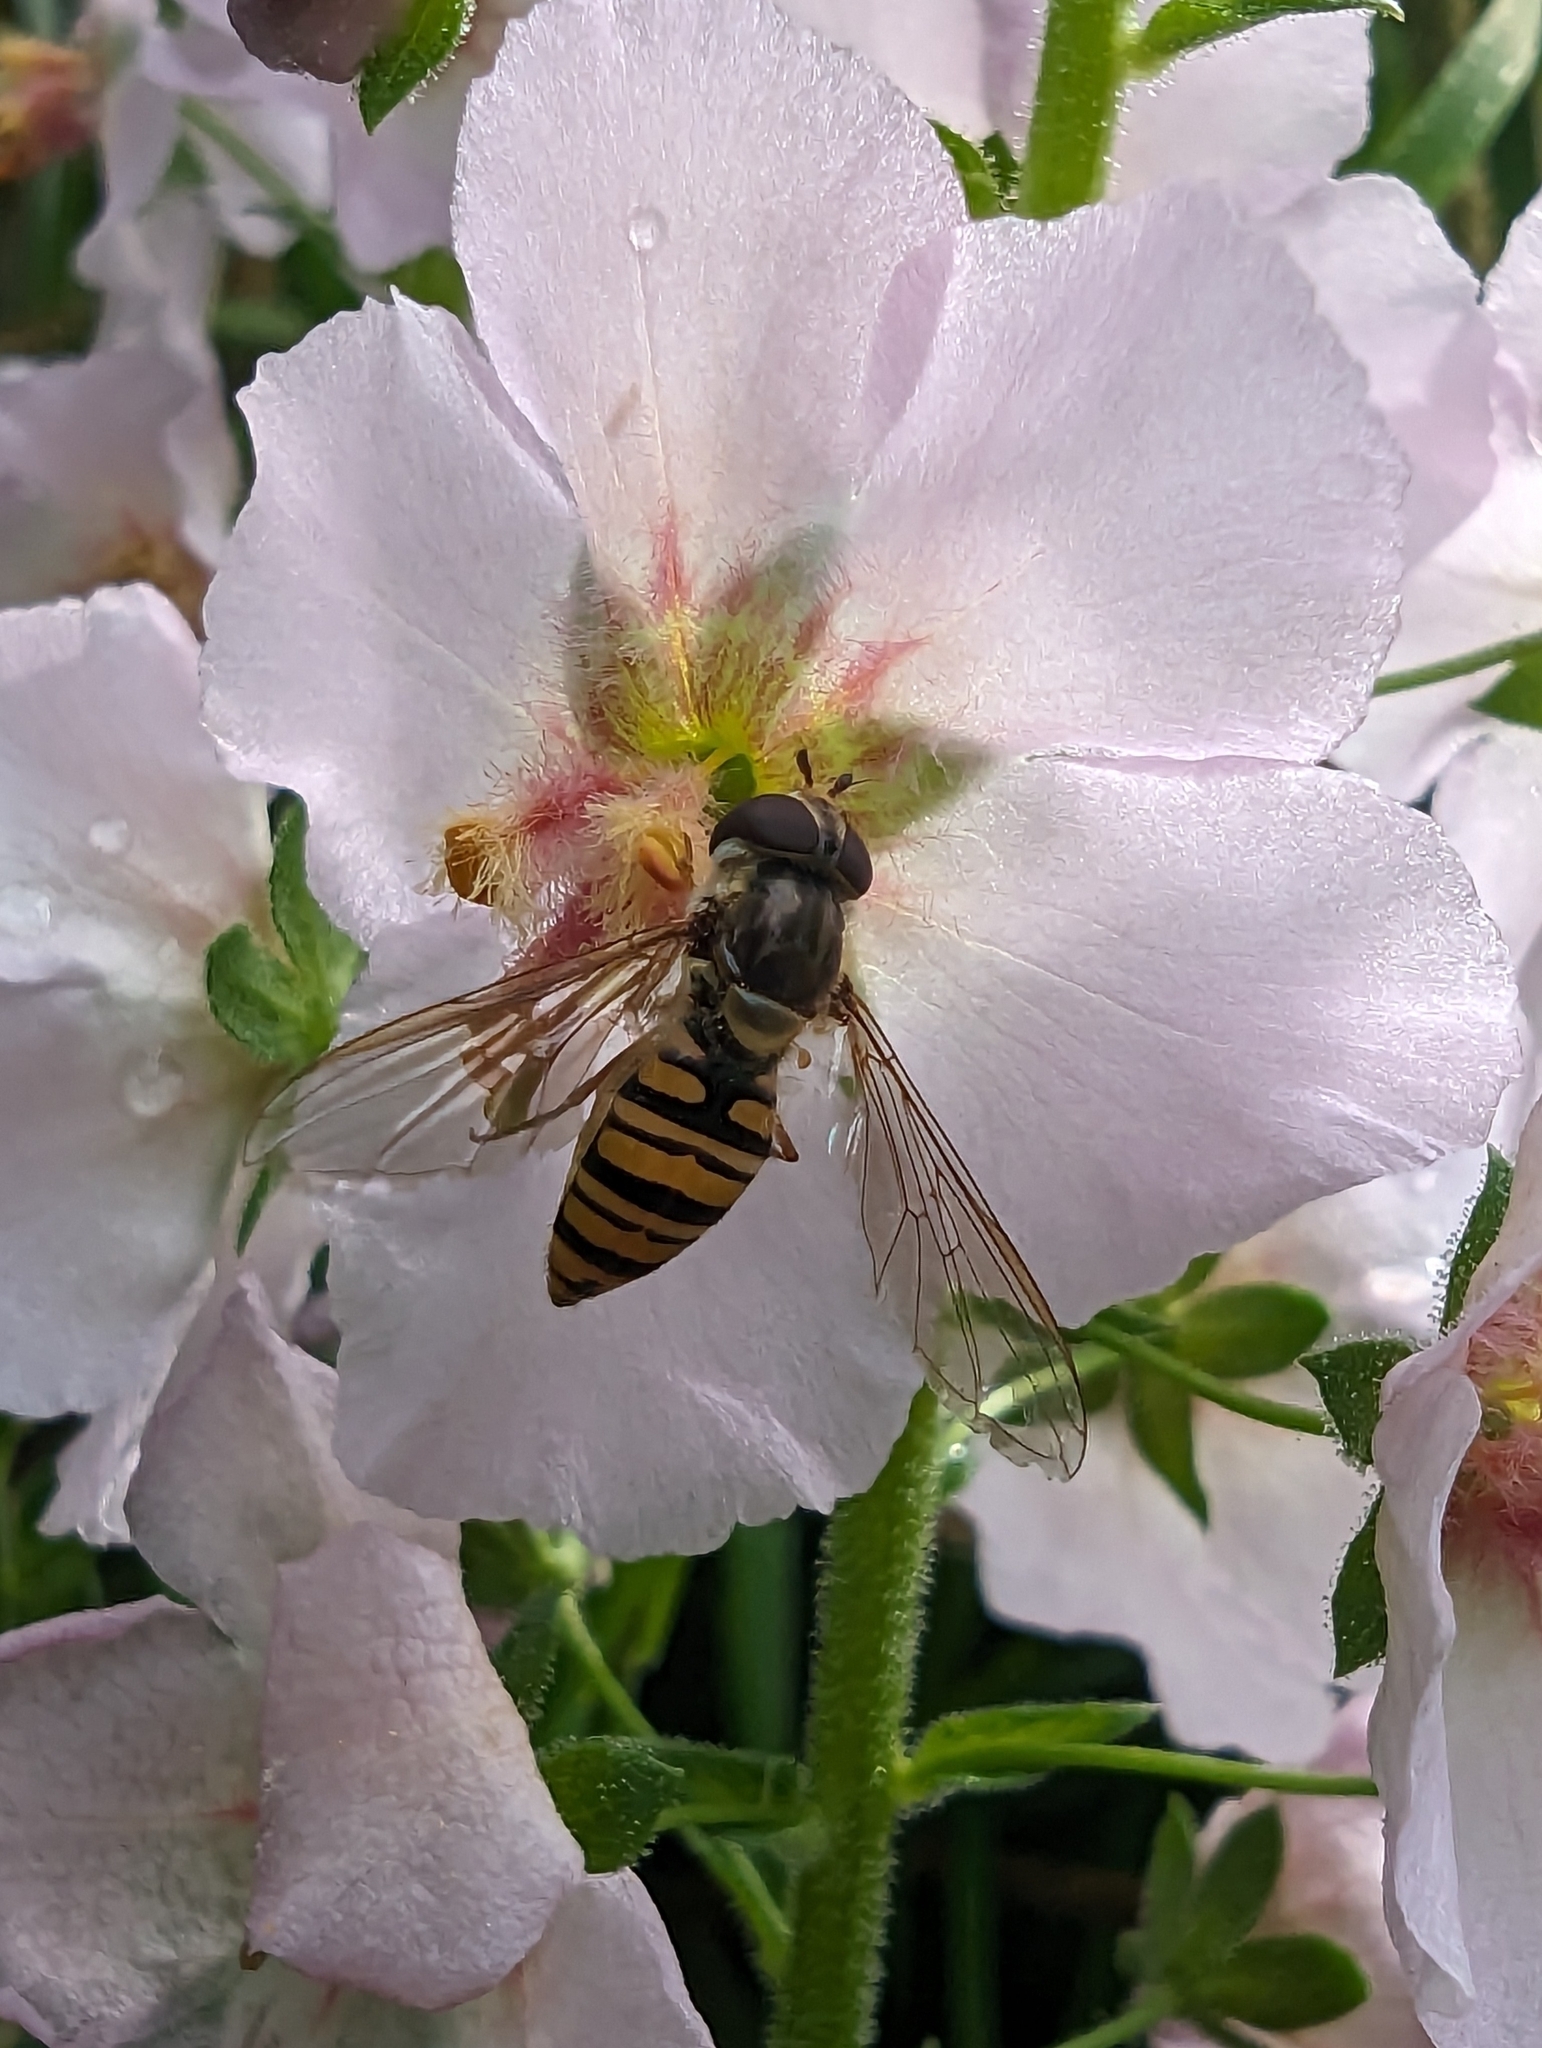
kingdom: Animalia
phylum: Arthropoda
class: Insecta
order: Diptera
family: Syrphidae
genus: Episyrphus
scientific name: Episyrphus balteatus
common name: Marmalade hoverfly
